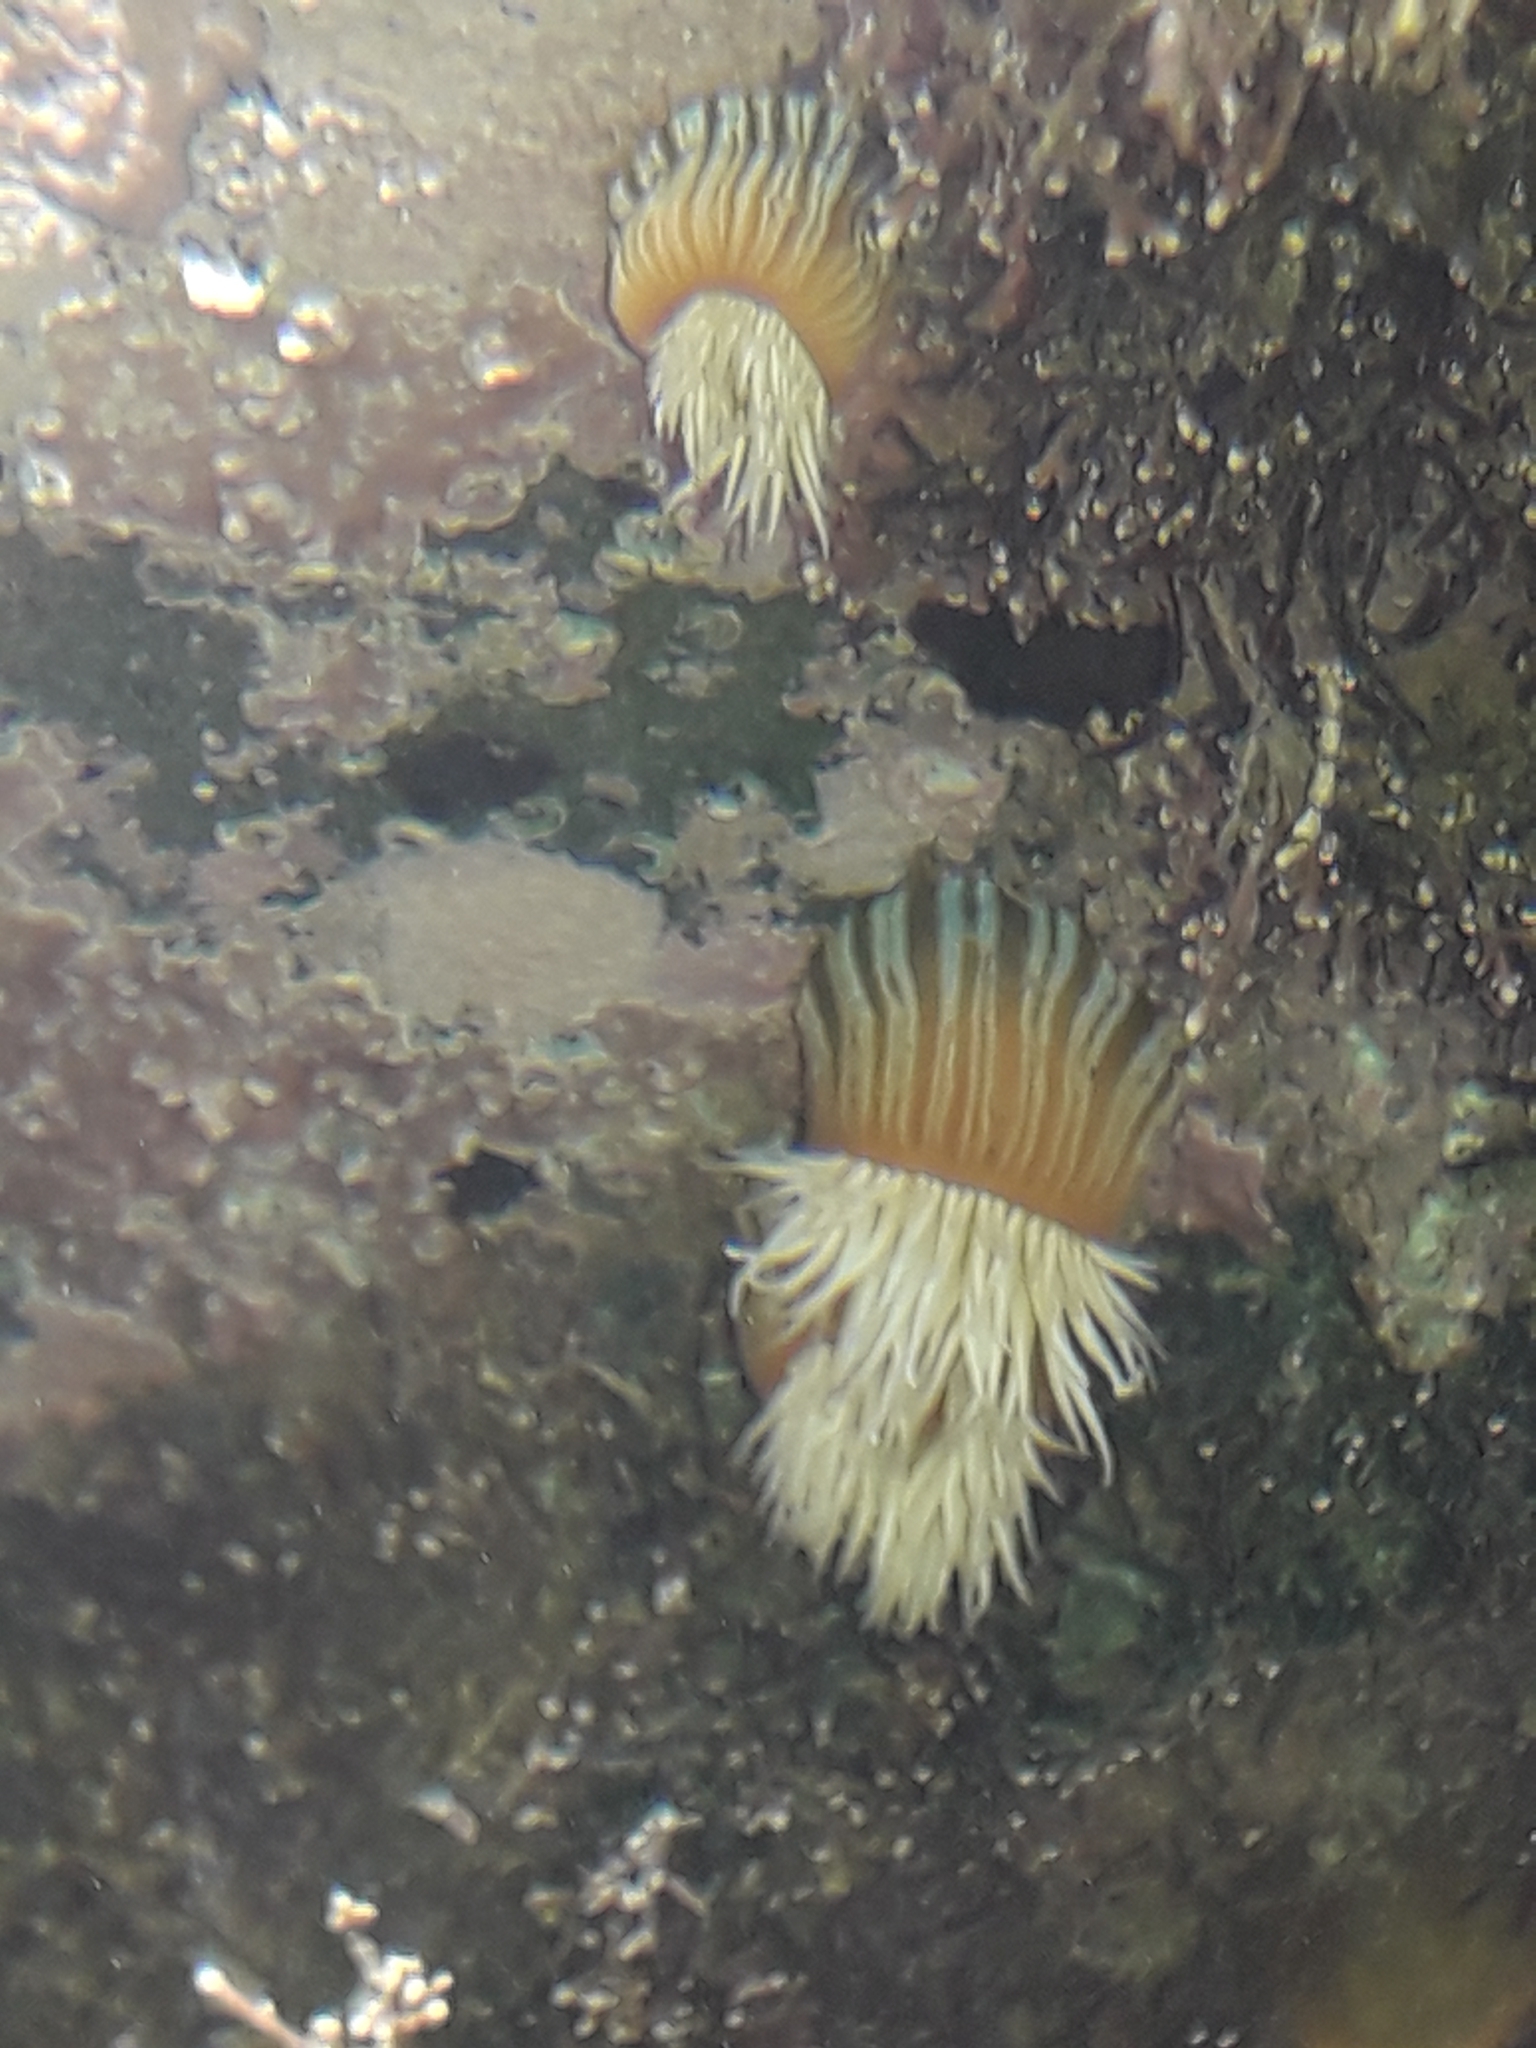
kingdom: Animalia
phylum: Cnidaria
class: Anthozoa
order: Actiniaria
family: Sagartiidae
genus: Anthothoe
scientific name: Anthothoe albocincta
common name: Orange striped anemone
